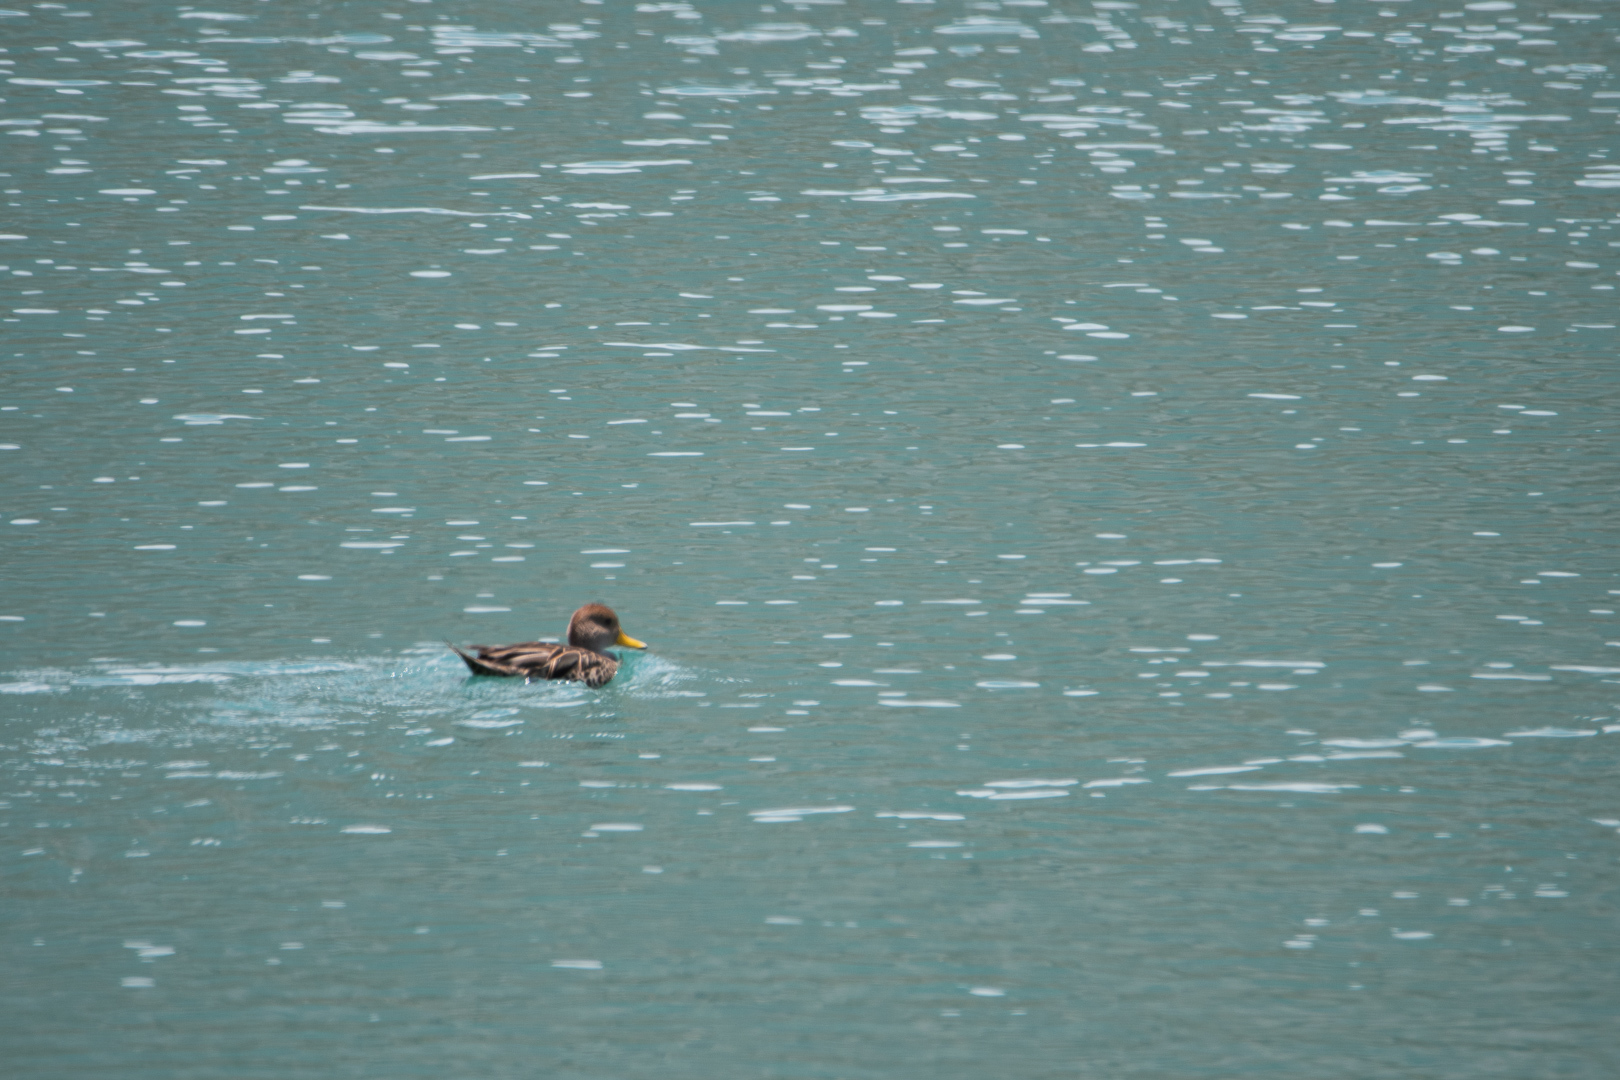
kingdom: Animalia
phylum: Chordata
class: Aves
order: Anseriformes
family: Anatidae
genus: Anas
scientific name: Anas georgica
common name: Yellow-billed pintail
